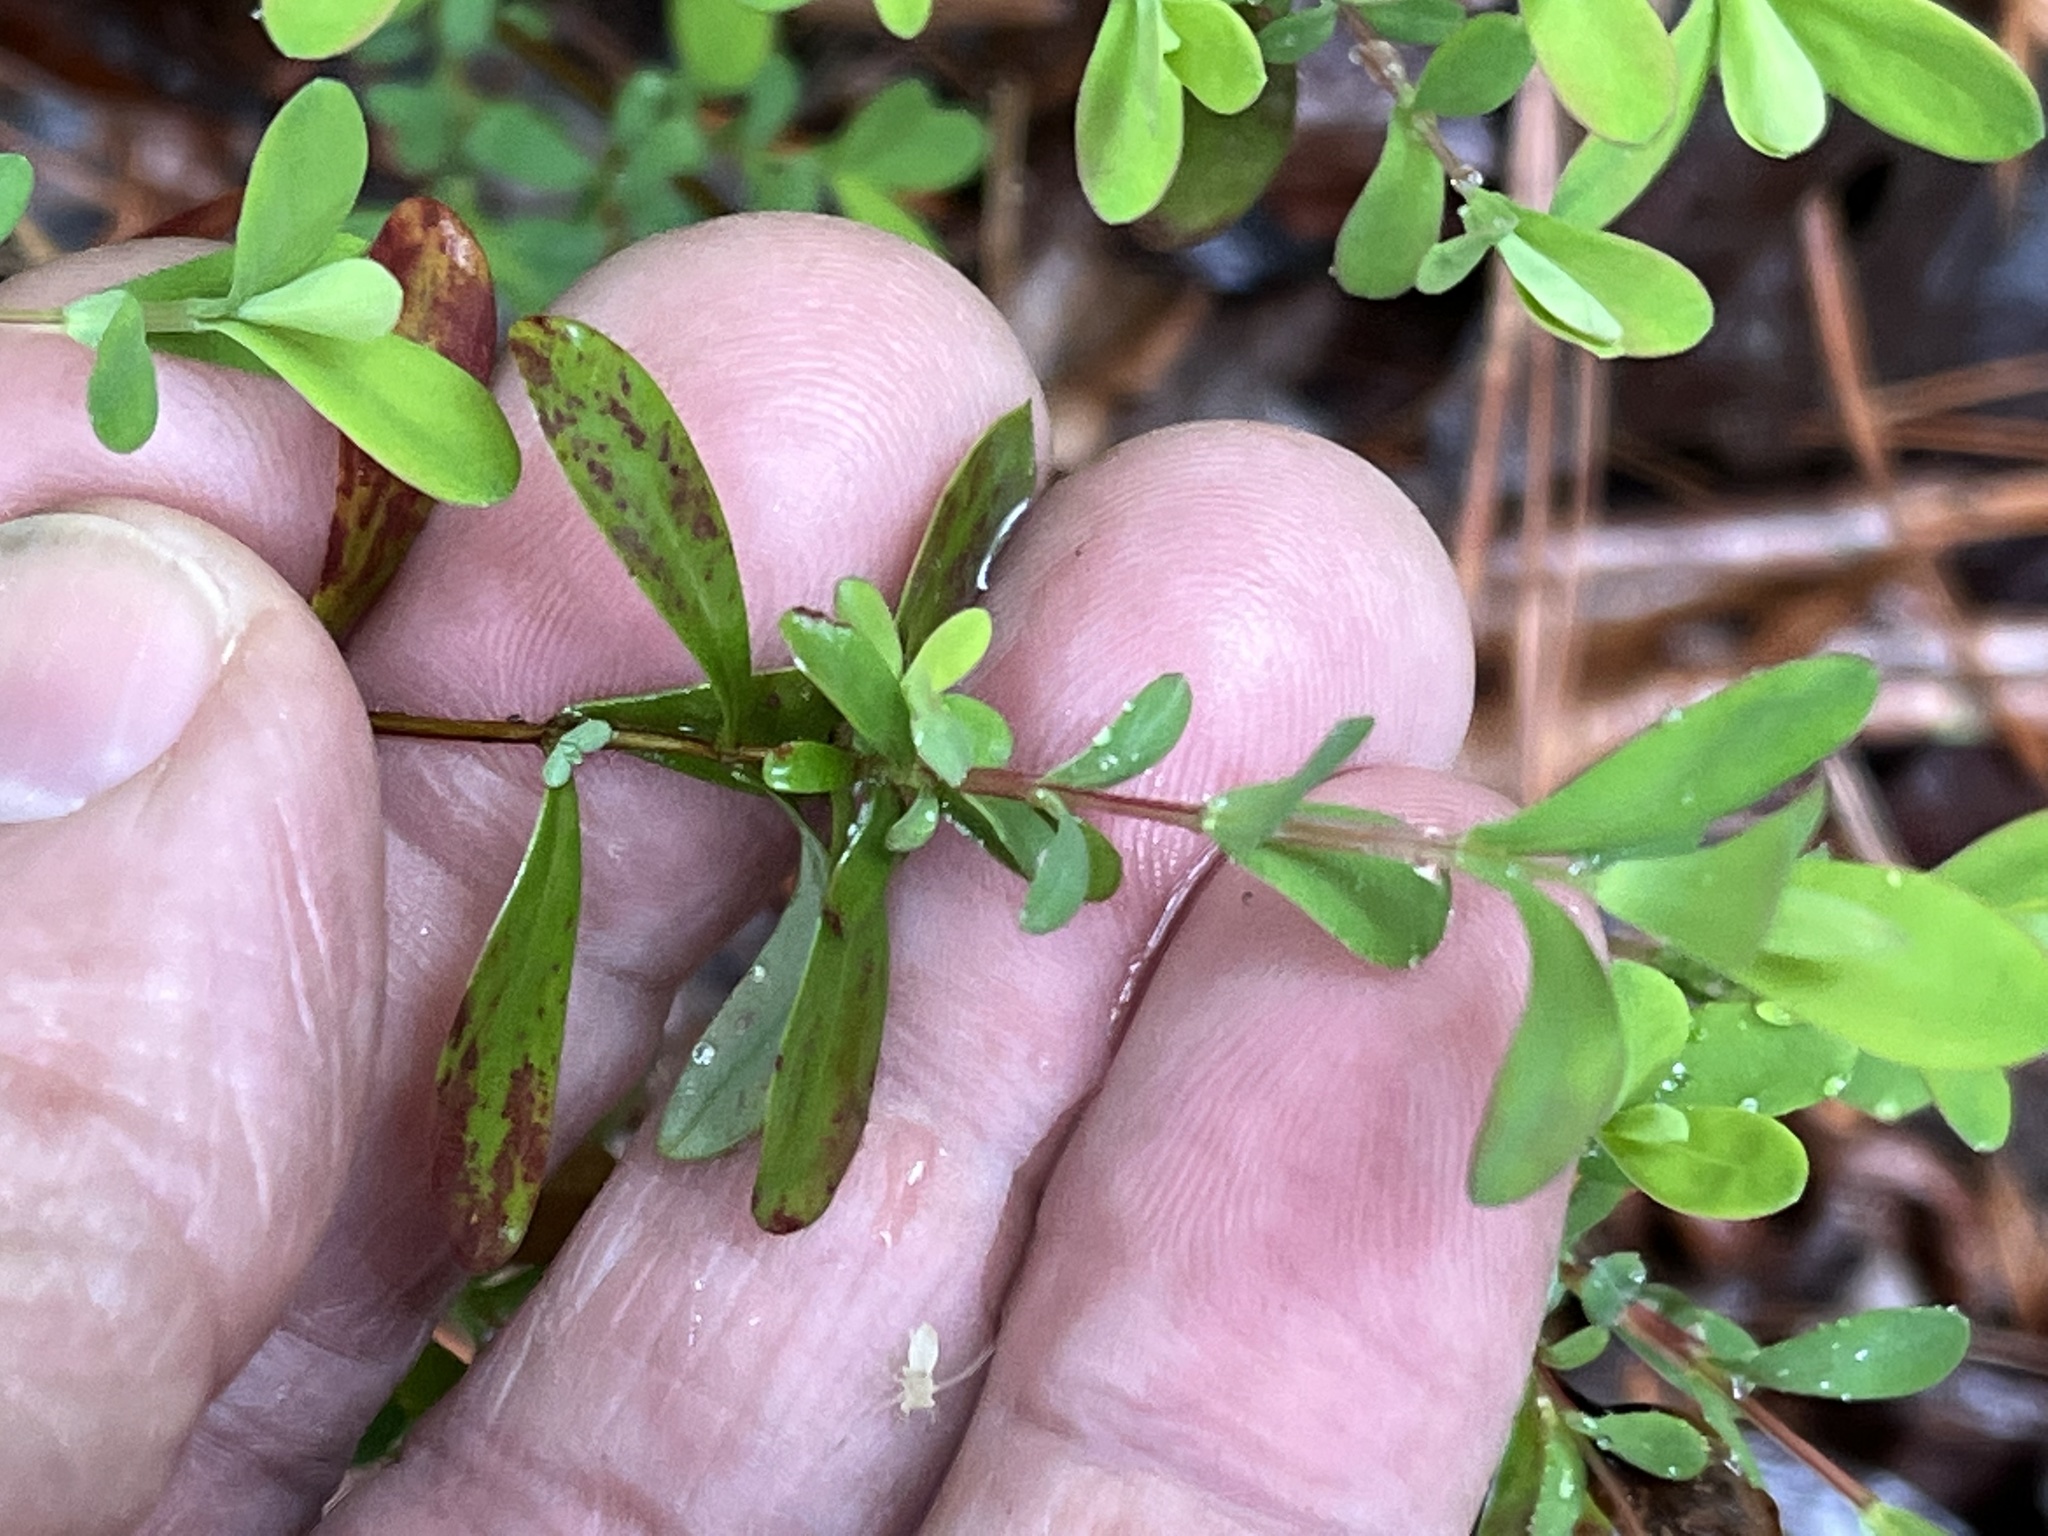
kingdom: Plantae
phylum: Tracheophyta
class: Magnoliopsida
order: Malpighiales
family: Hypericaceae
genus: Hypericum
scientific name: Hypericum hypericoides
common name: St. andrew's cross
